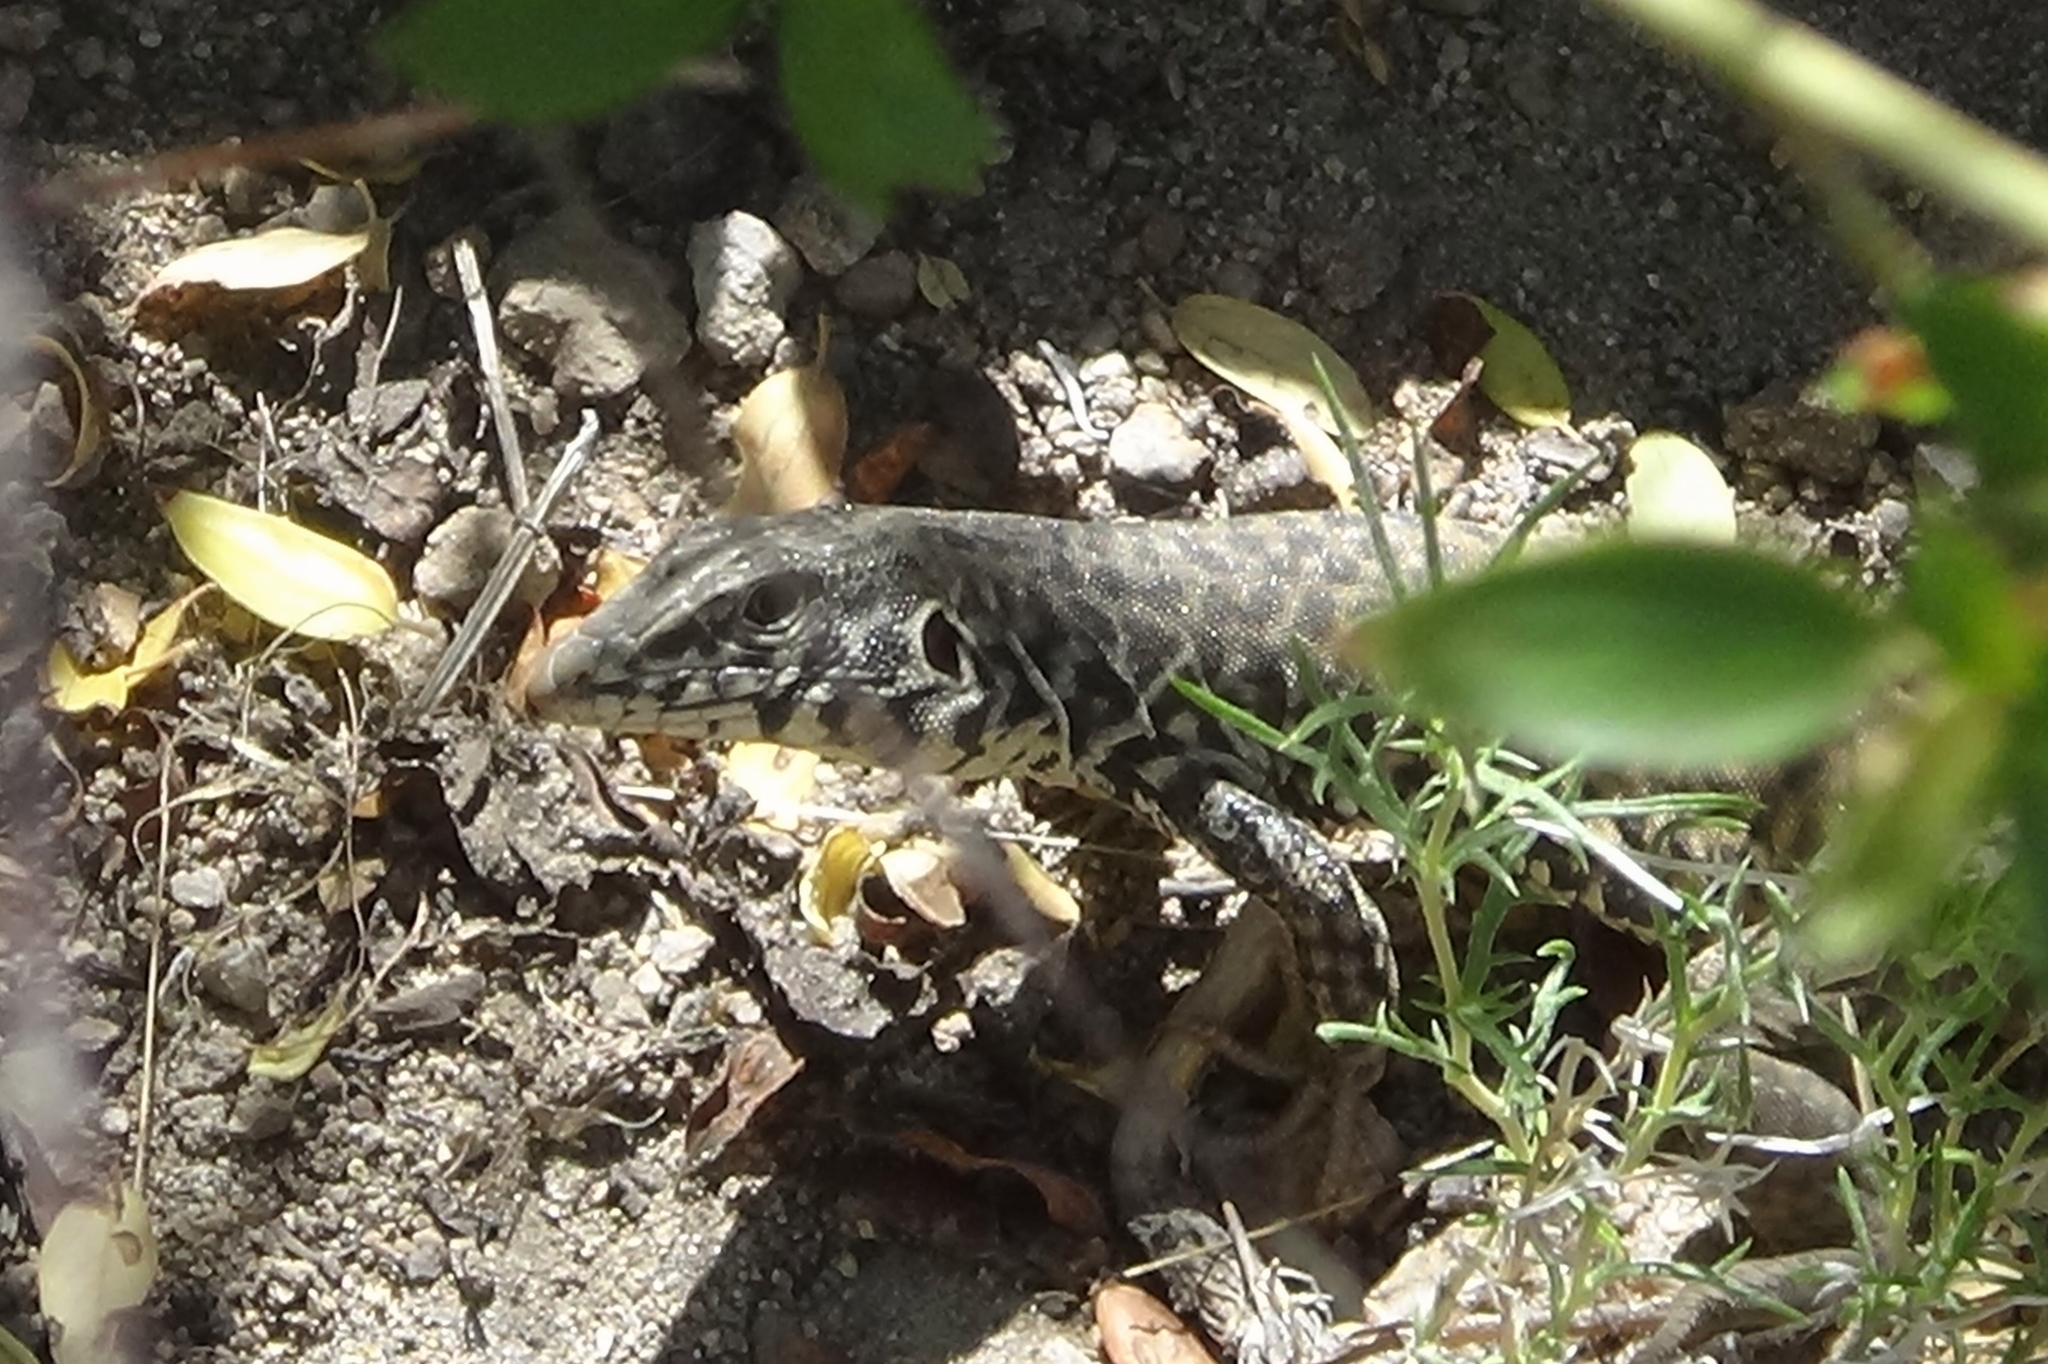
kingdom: Animalia
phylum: Chordata
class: Squamata
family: Teiidae
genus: Aspidoscelis
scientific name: Aspidoscelis tigris
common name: Tiger whiptail
